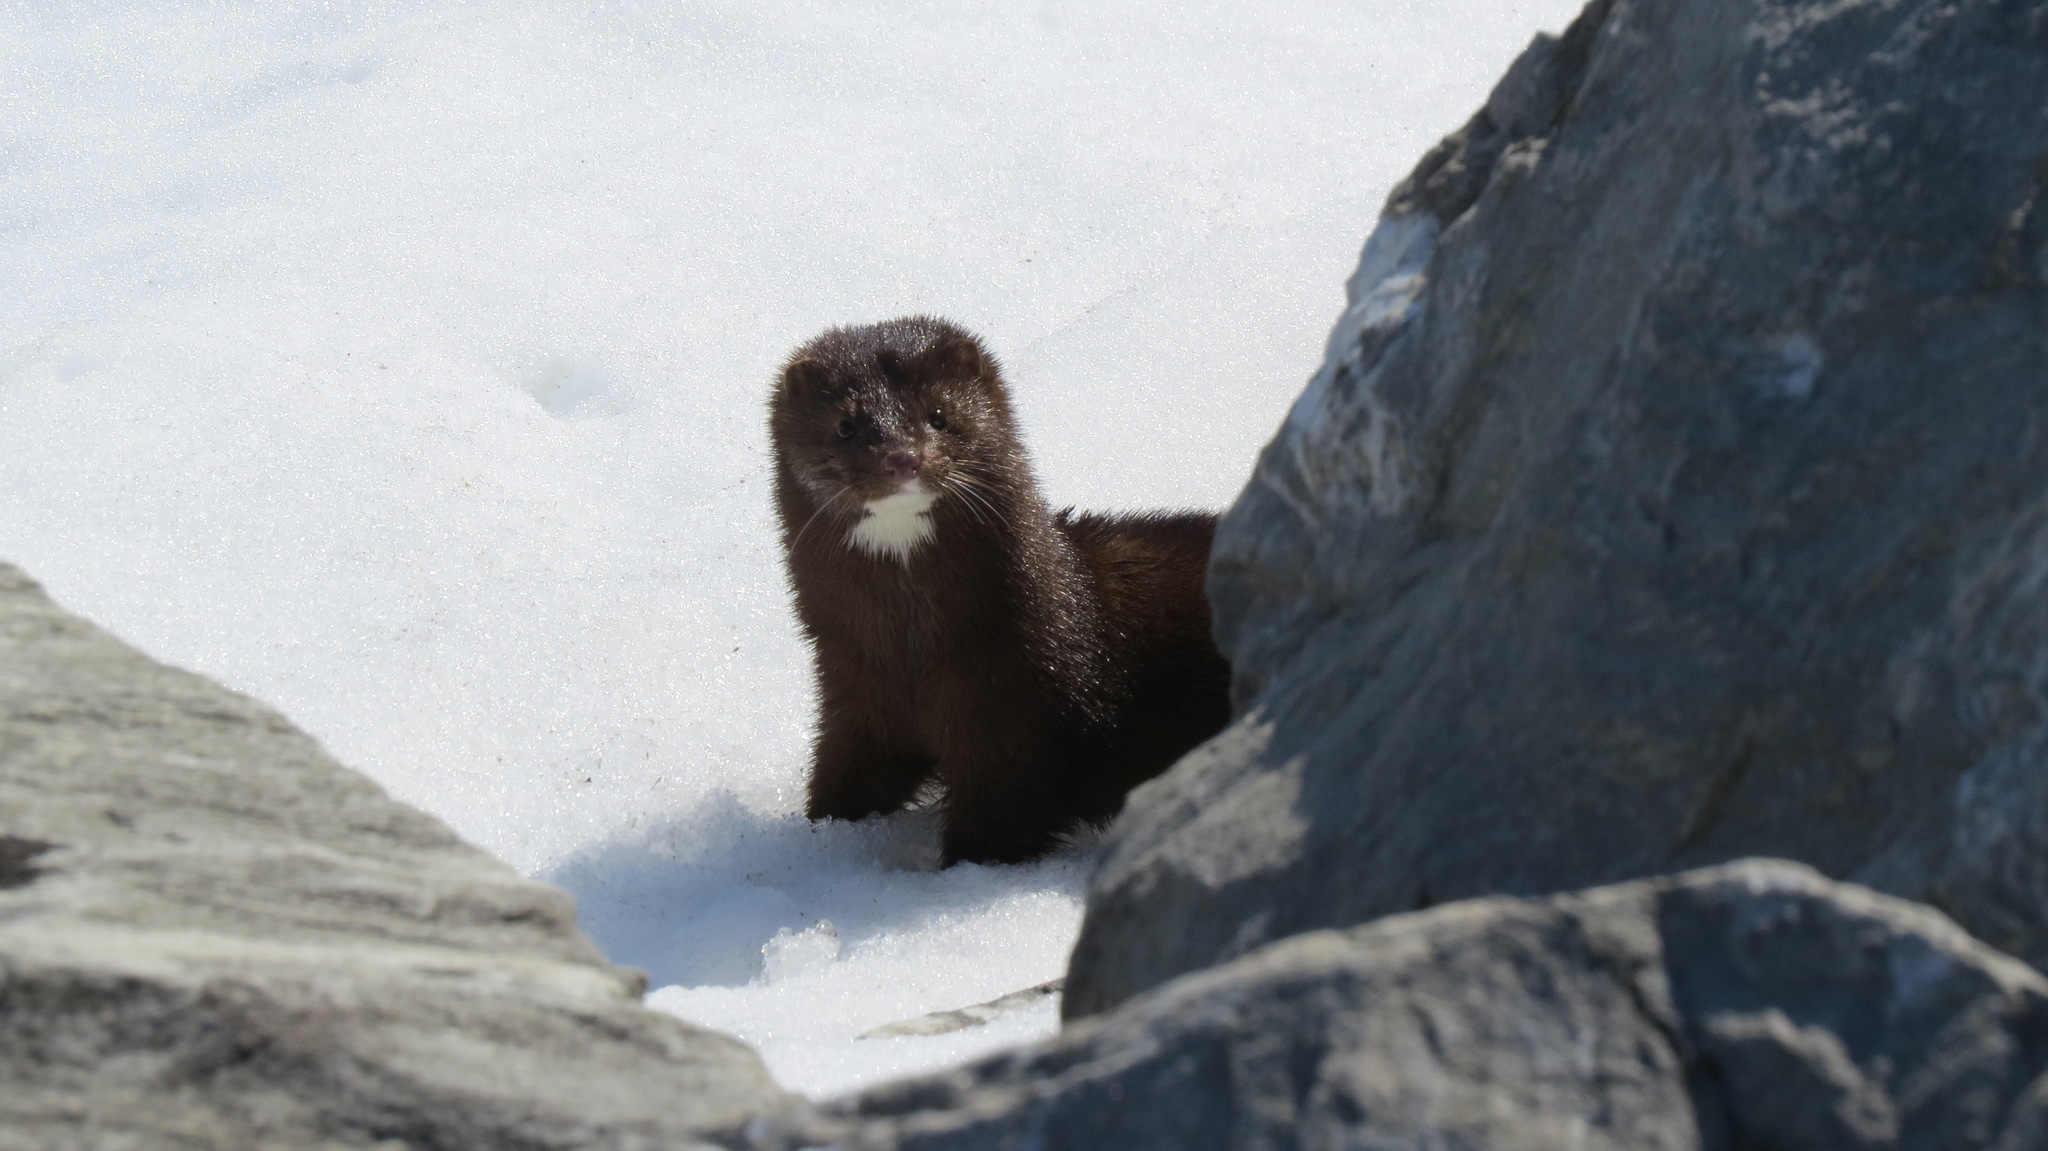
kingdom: Animalia
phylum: Chordata
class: Mammalia
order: Carnivora
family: Mustelidae
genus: Mustela
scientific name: Mustela
